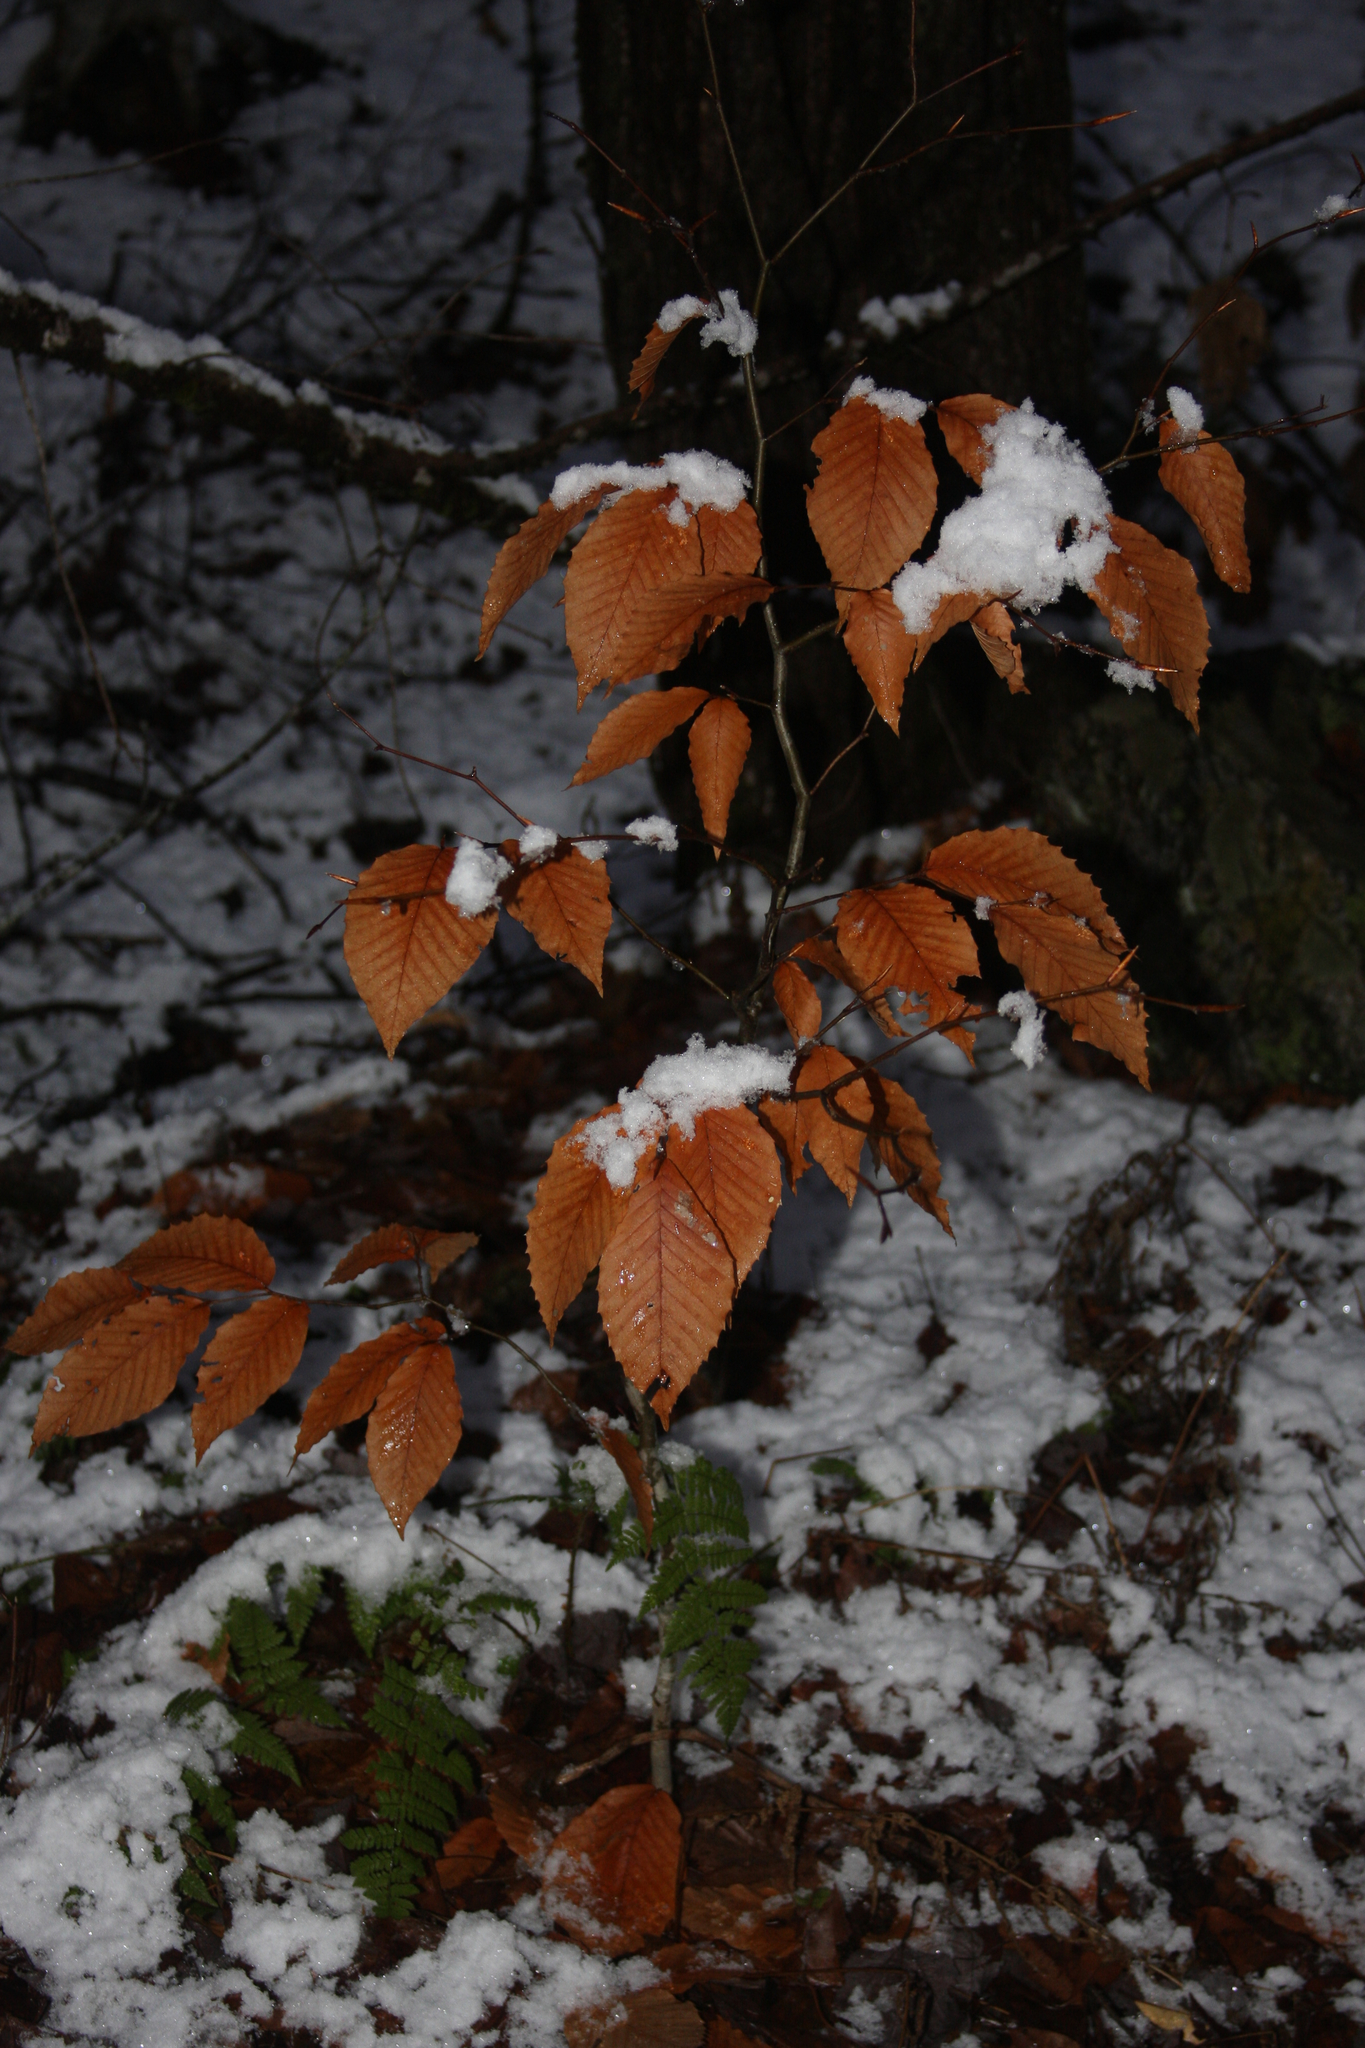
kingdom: Plantae
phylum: Tracheophyta
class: Magnoliopsida
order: Fagales
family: Fagaceae
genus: Fagus
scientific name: Fagus grandifolia
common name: American beech
